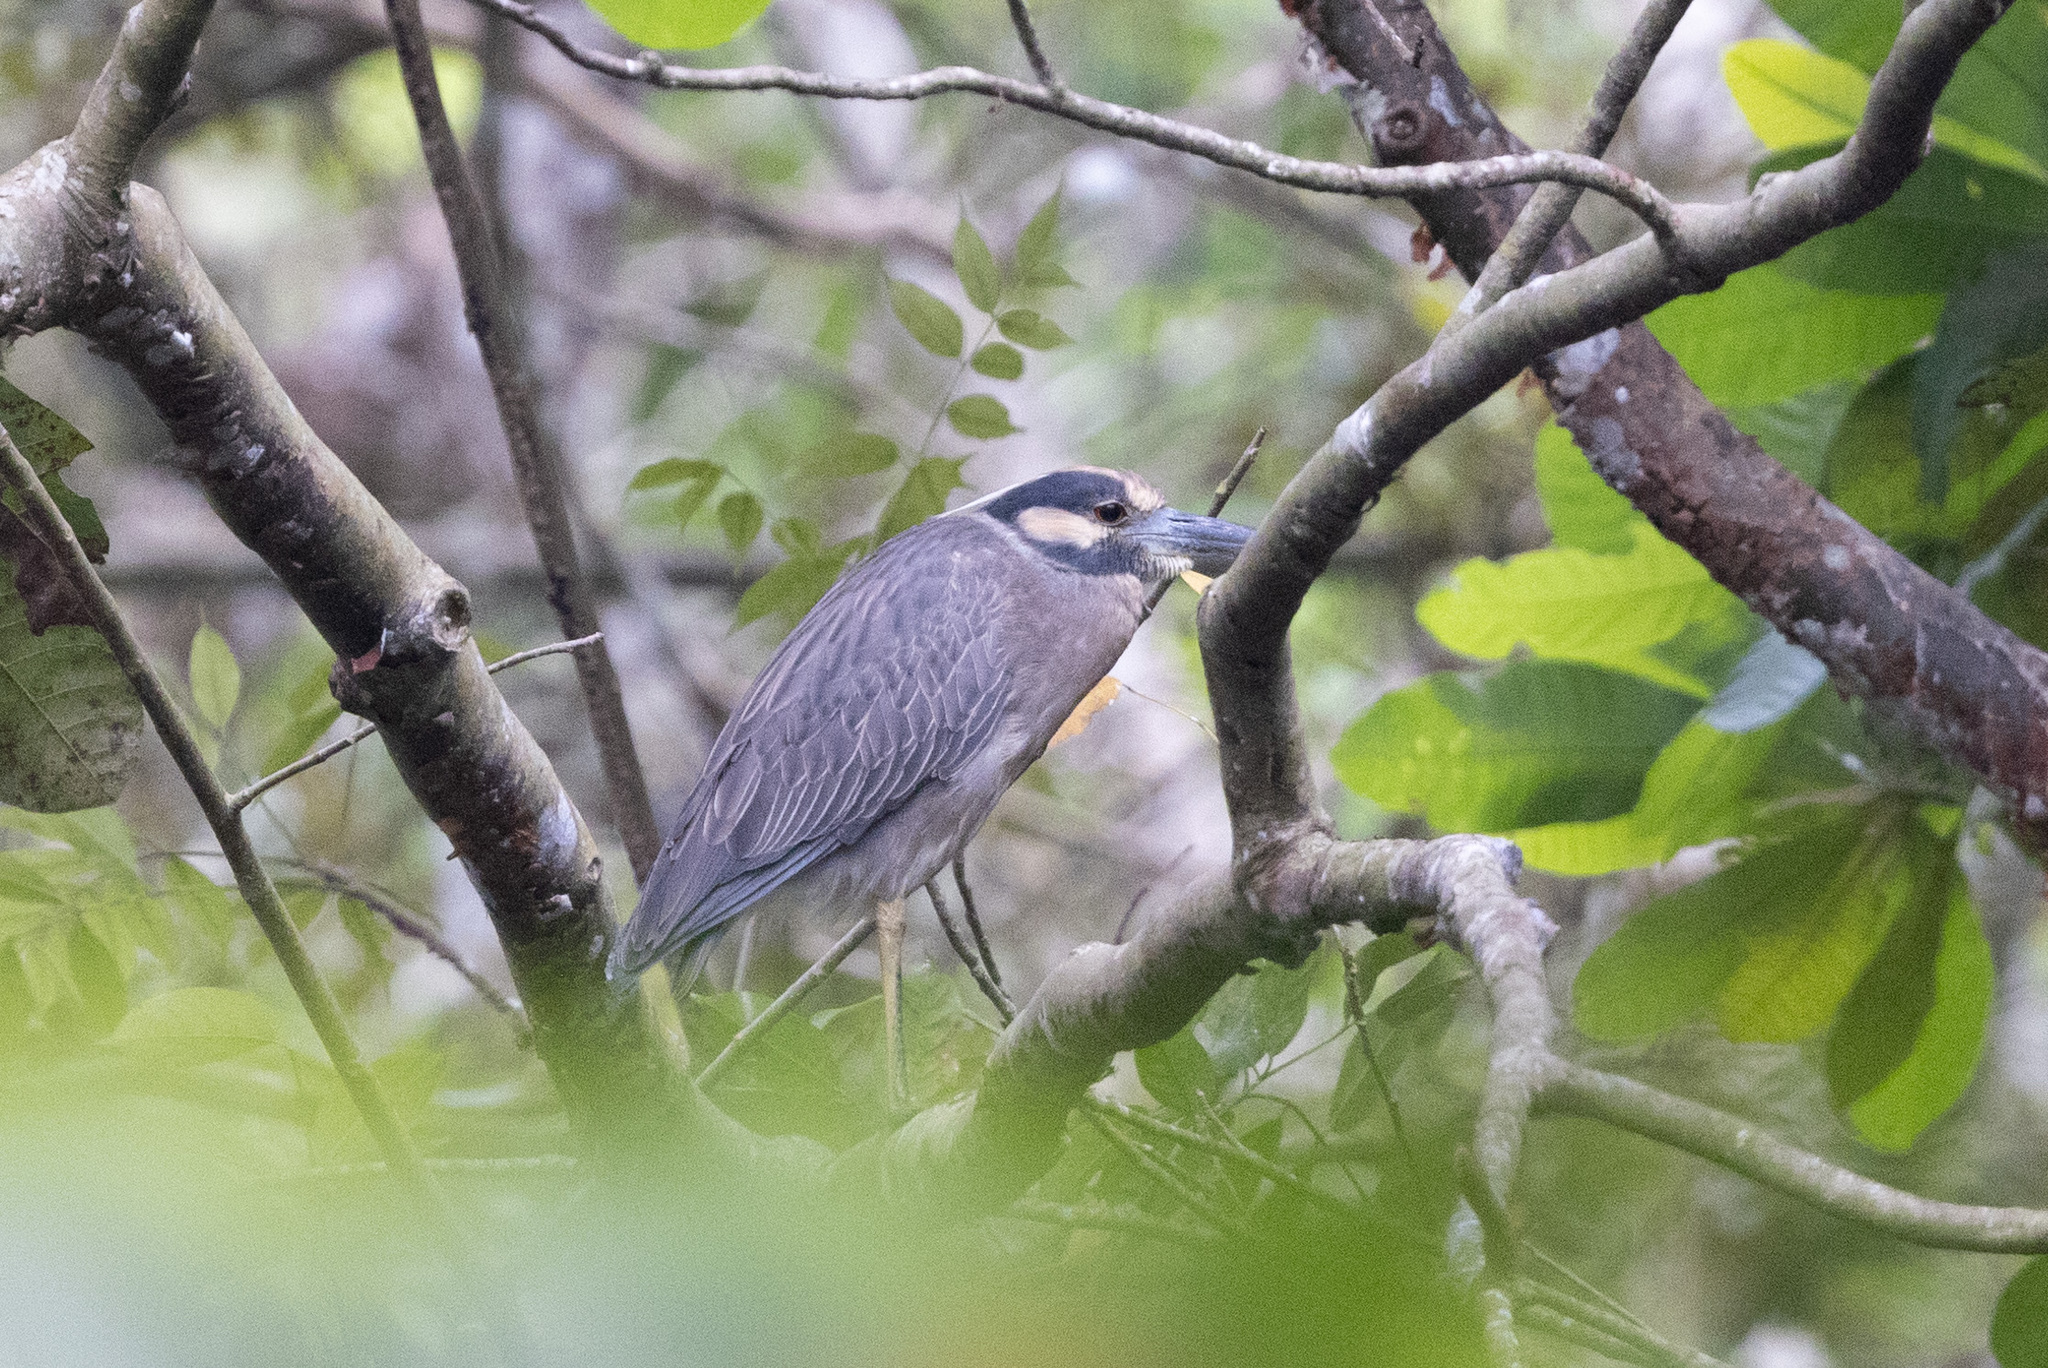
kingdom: Animalia
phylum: Chordata
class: Aves
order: Pelecaniformes
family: Ardeidae
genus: Nyctanassa
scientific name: Nyctanassa violacea
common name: Yellow-crowned night heron
